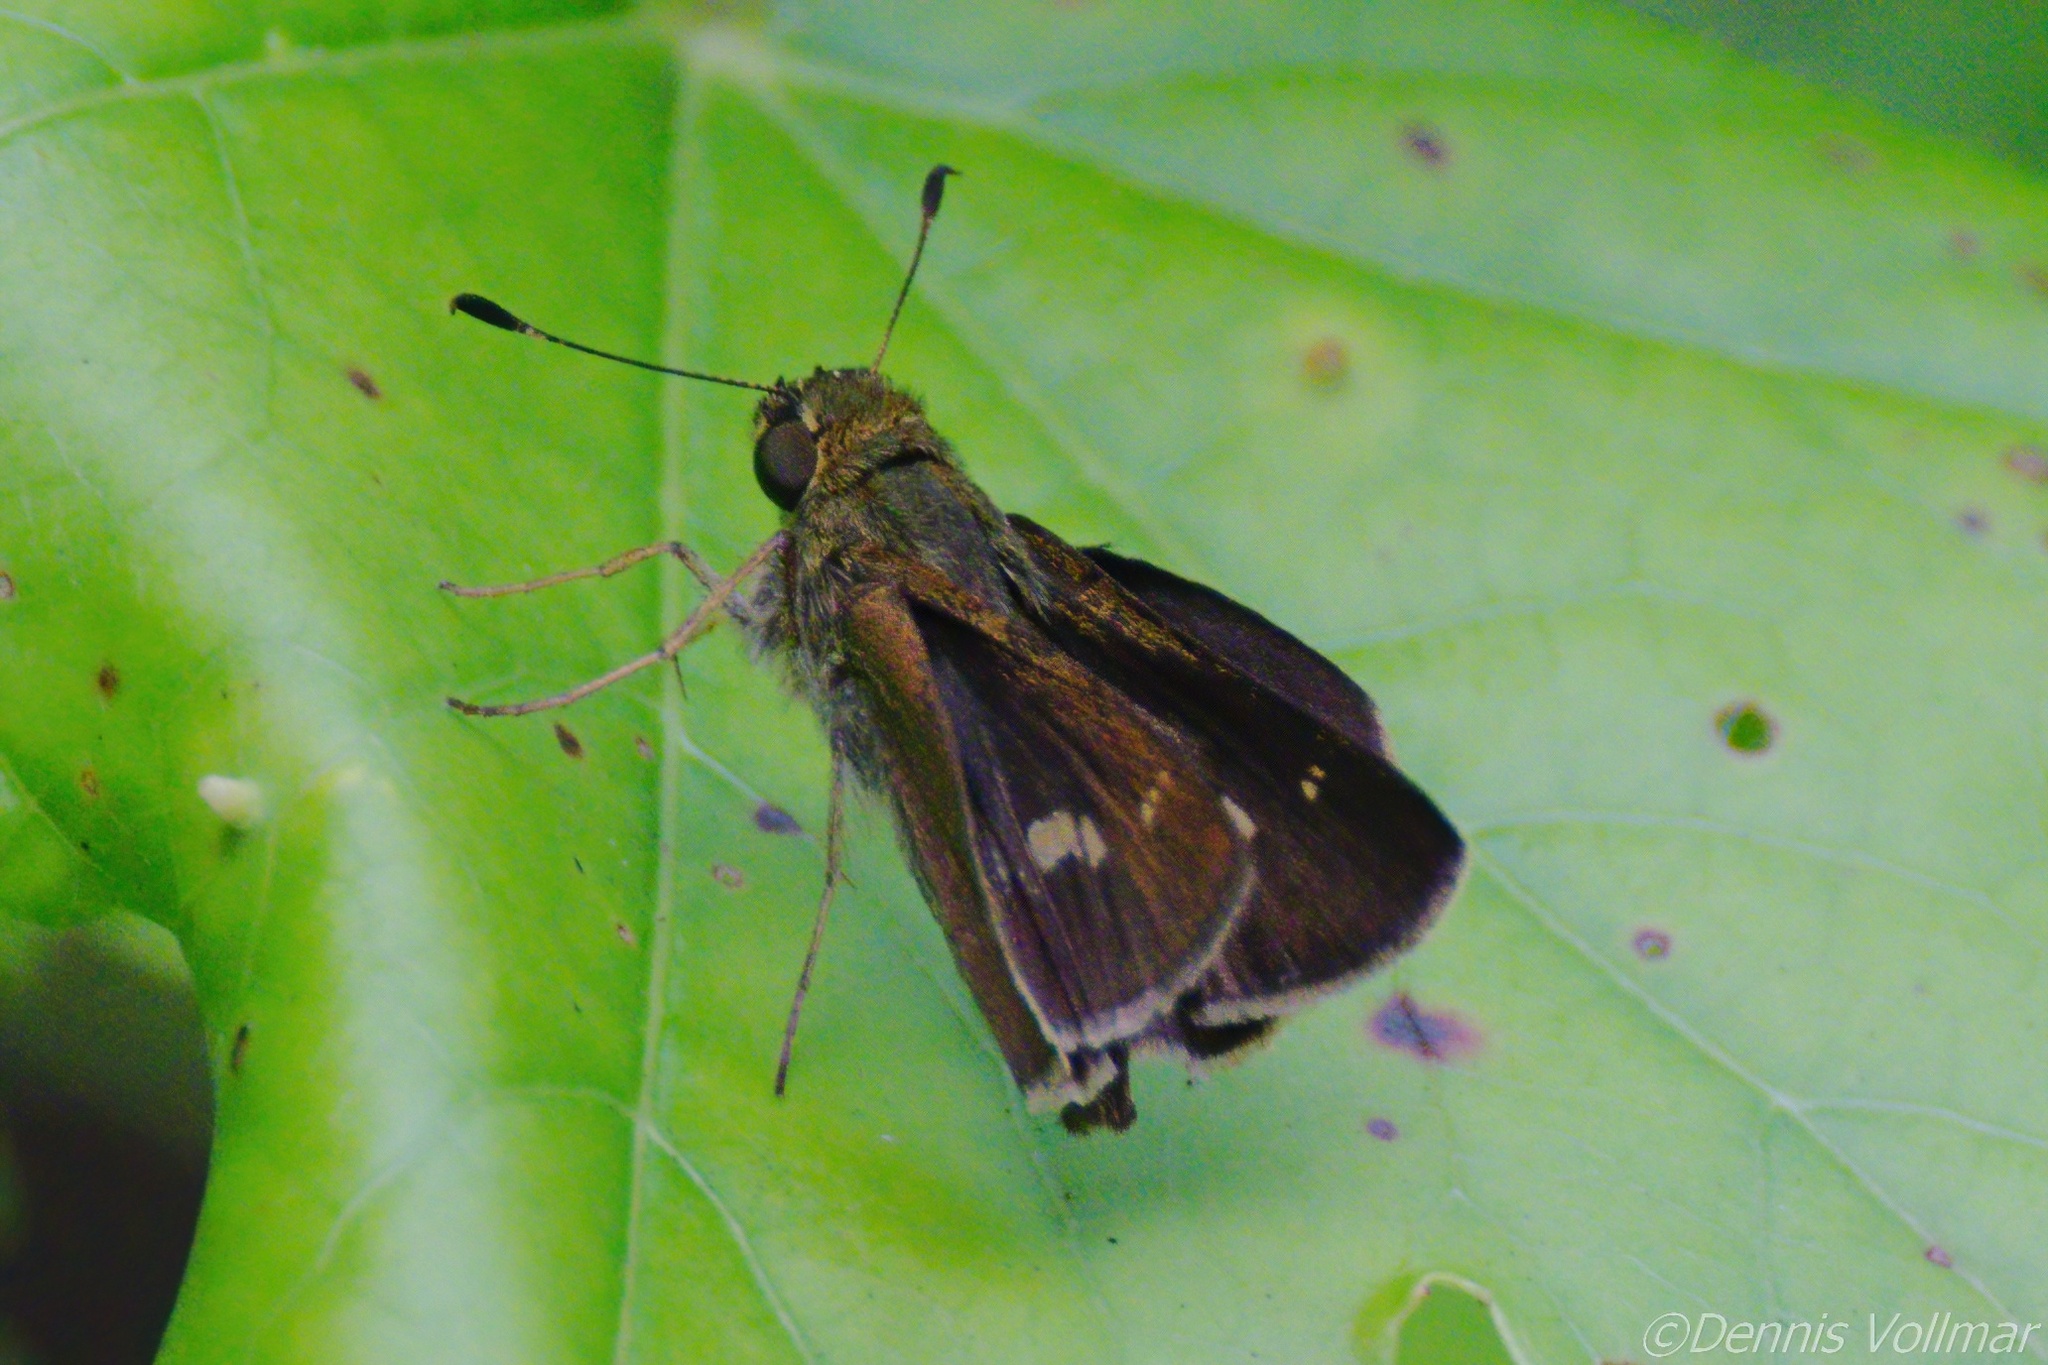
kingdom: Animalia
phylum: Arthropoda
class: Insecta
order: Lepidoptera
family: Hesperiidae
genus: Vernia
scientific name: Vernia verna
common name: Little glassywing
